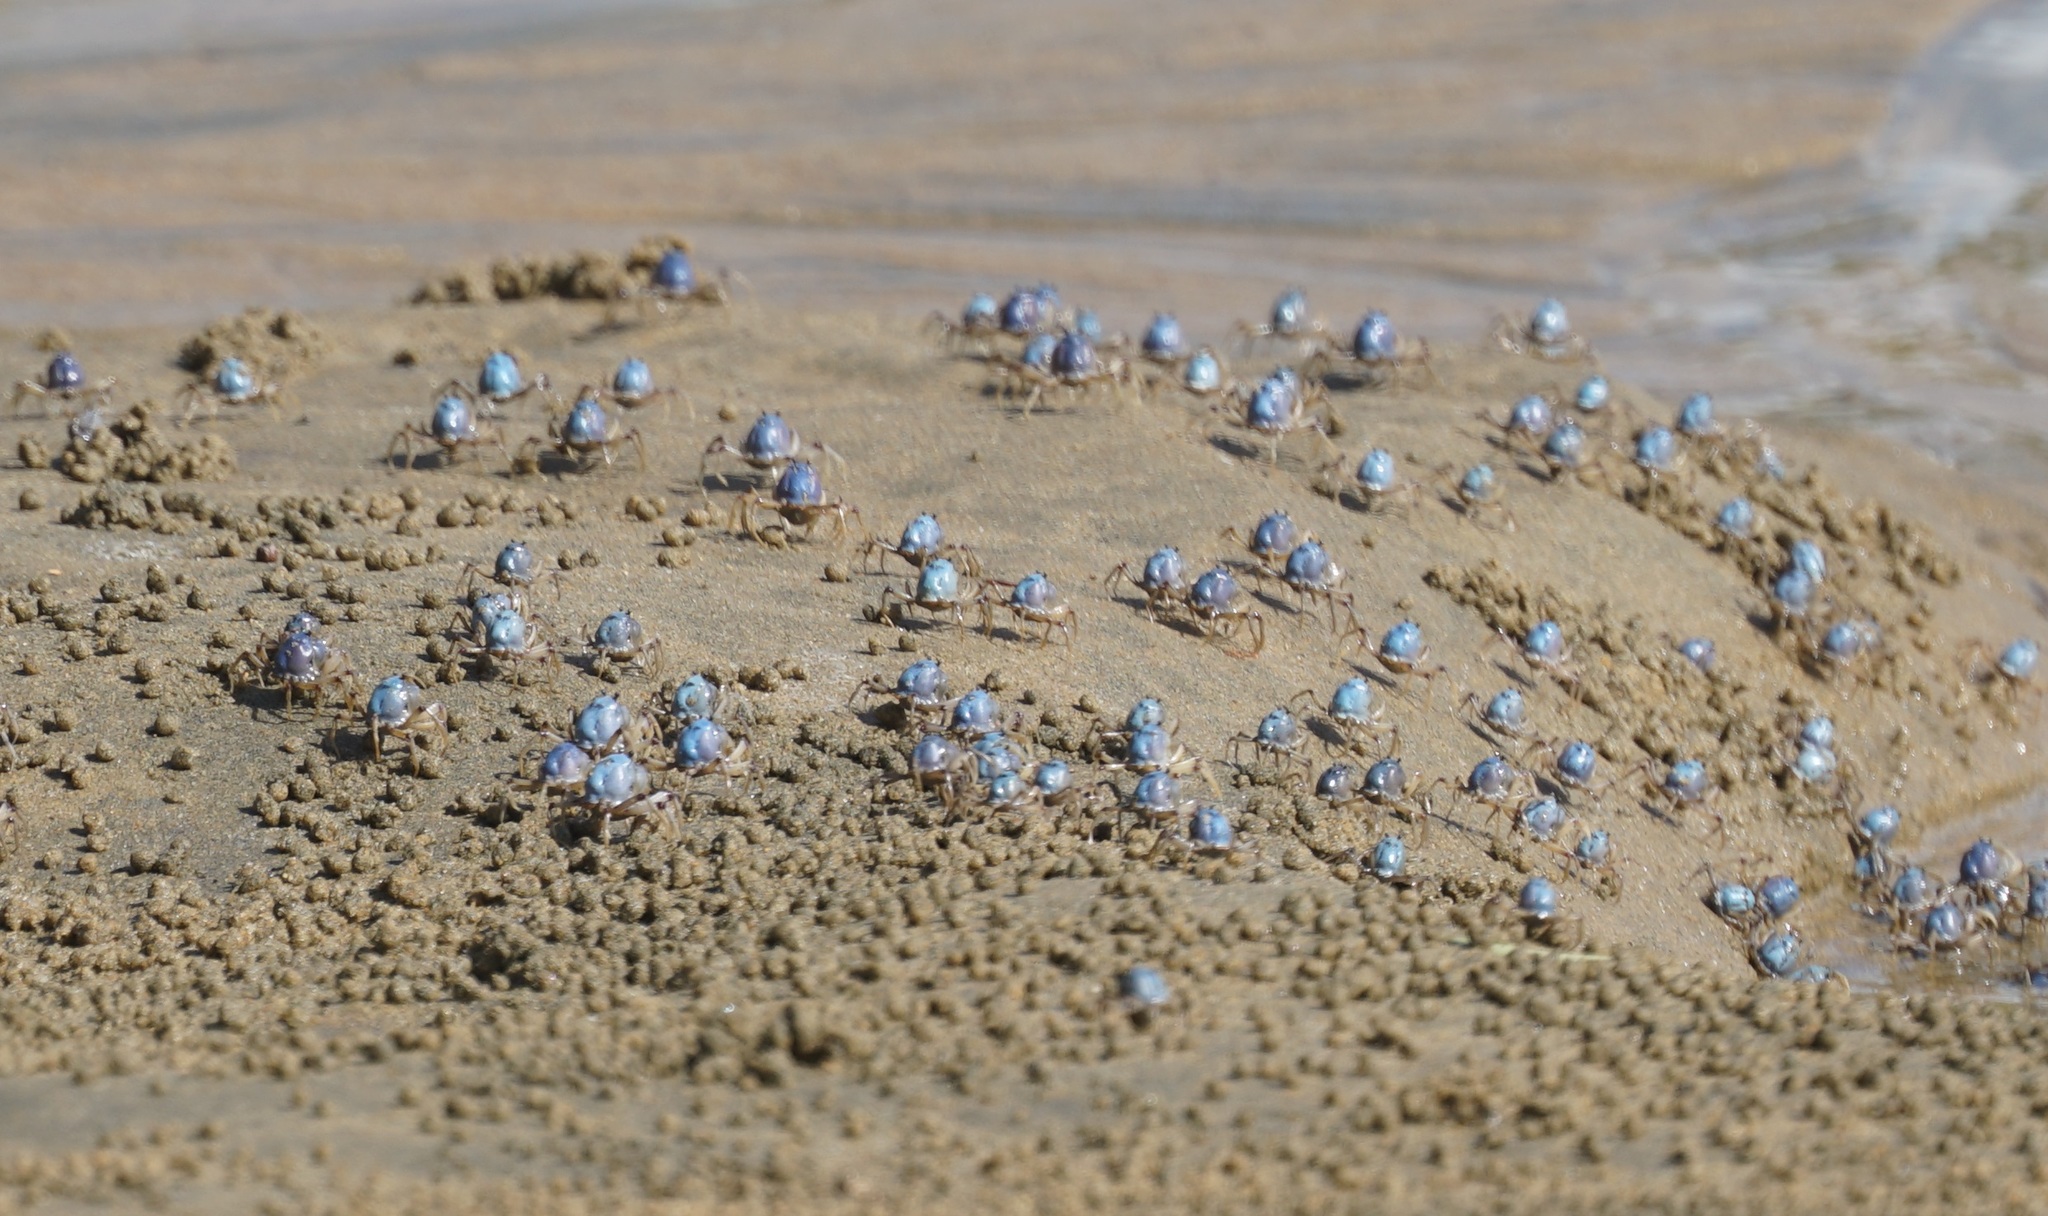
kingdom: Animalia
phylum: Arthropoda
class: Malacostraca
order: Decapoda
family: Mictyridae
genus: Mictyris
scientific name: Mictyris longicarpus
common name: Light-blue soldier crab
